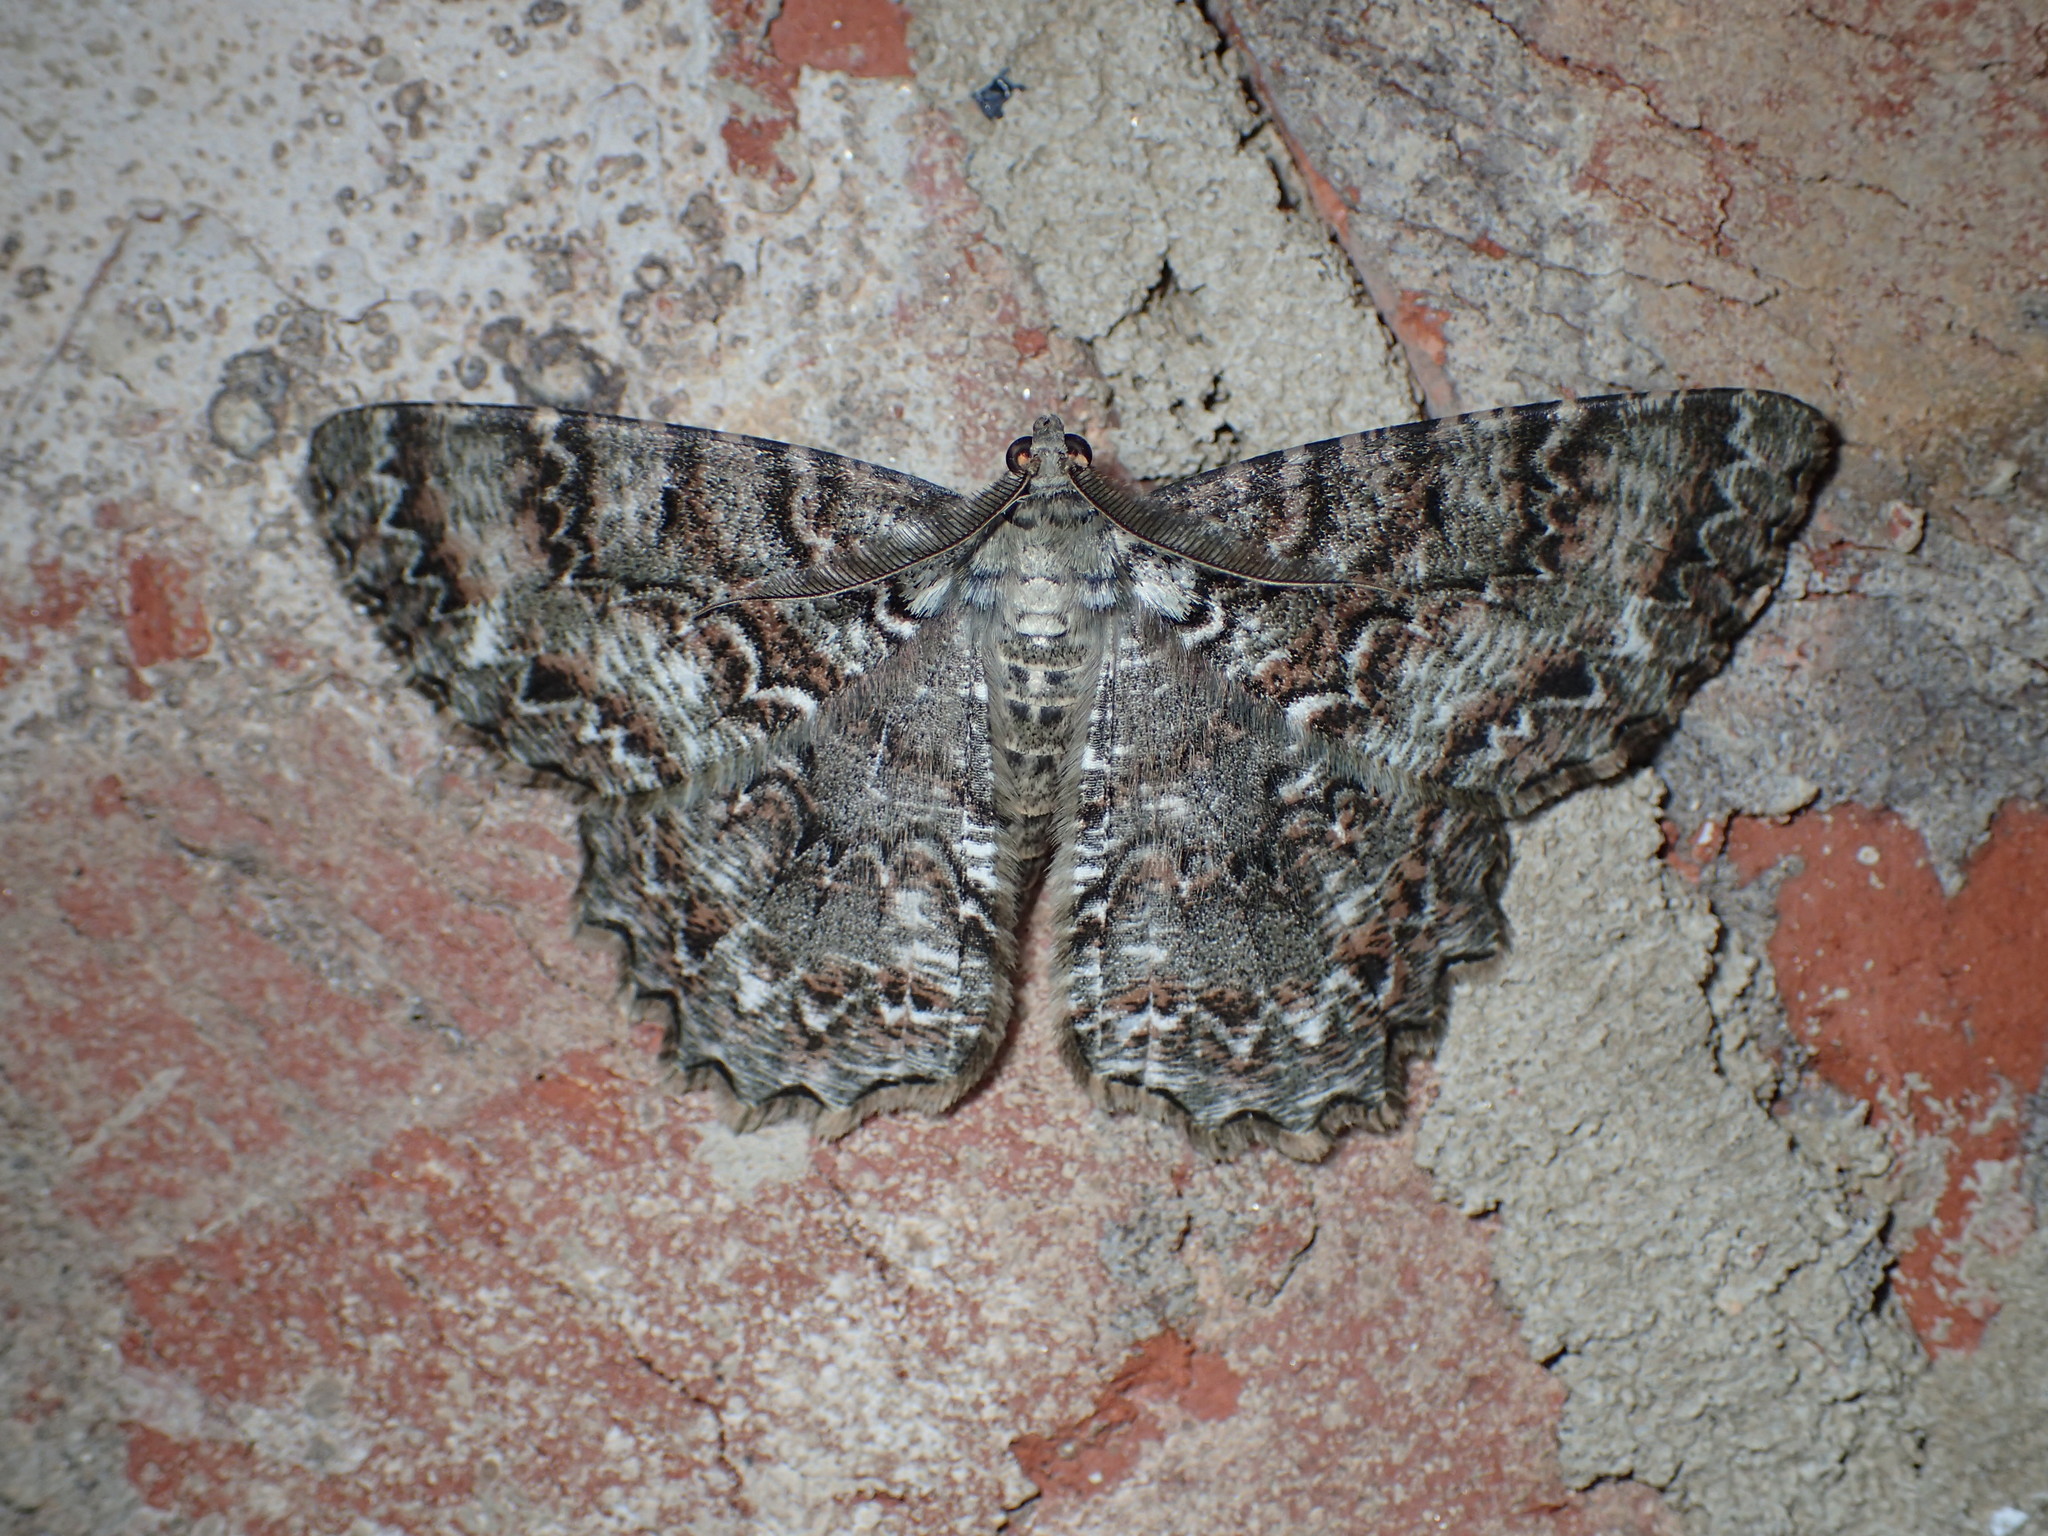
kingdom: Animalia
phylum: Arthropoda
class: Insecta
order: Lepidoptera
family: Geometridae
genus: Epimecis
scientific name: Epimecis hortaria
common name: Tulip-tree beauty
